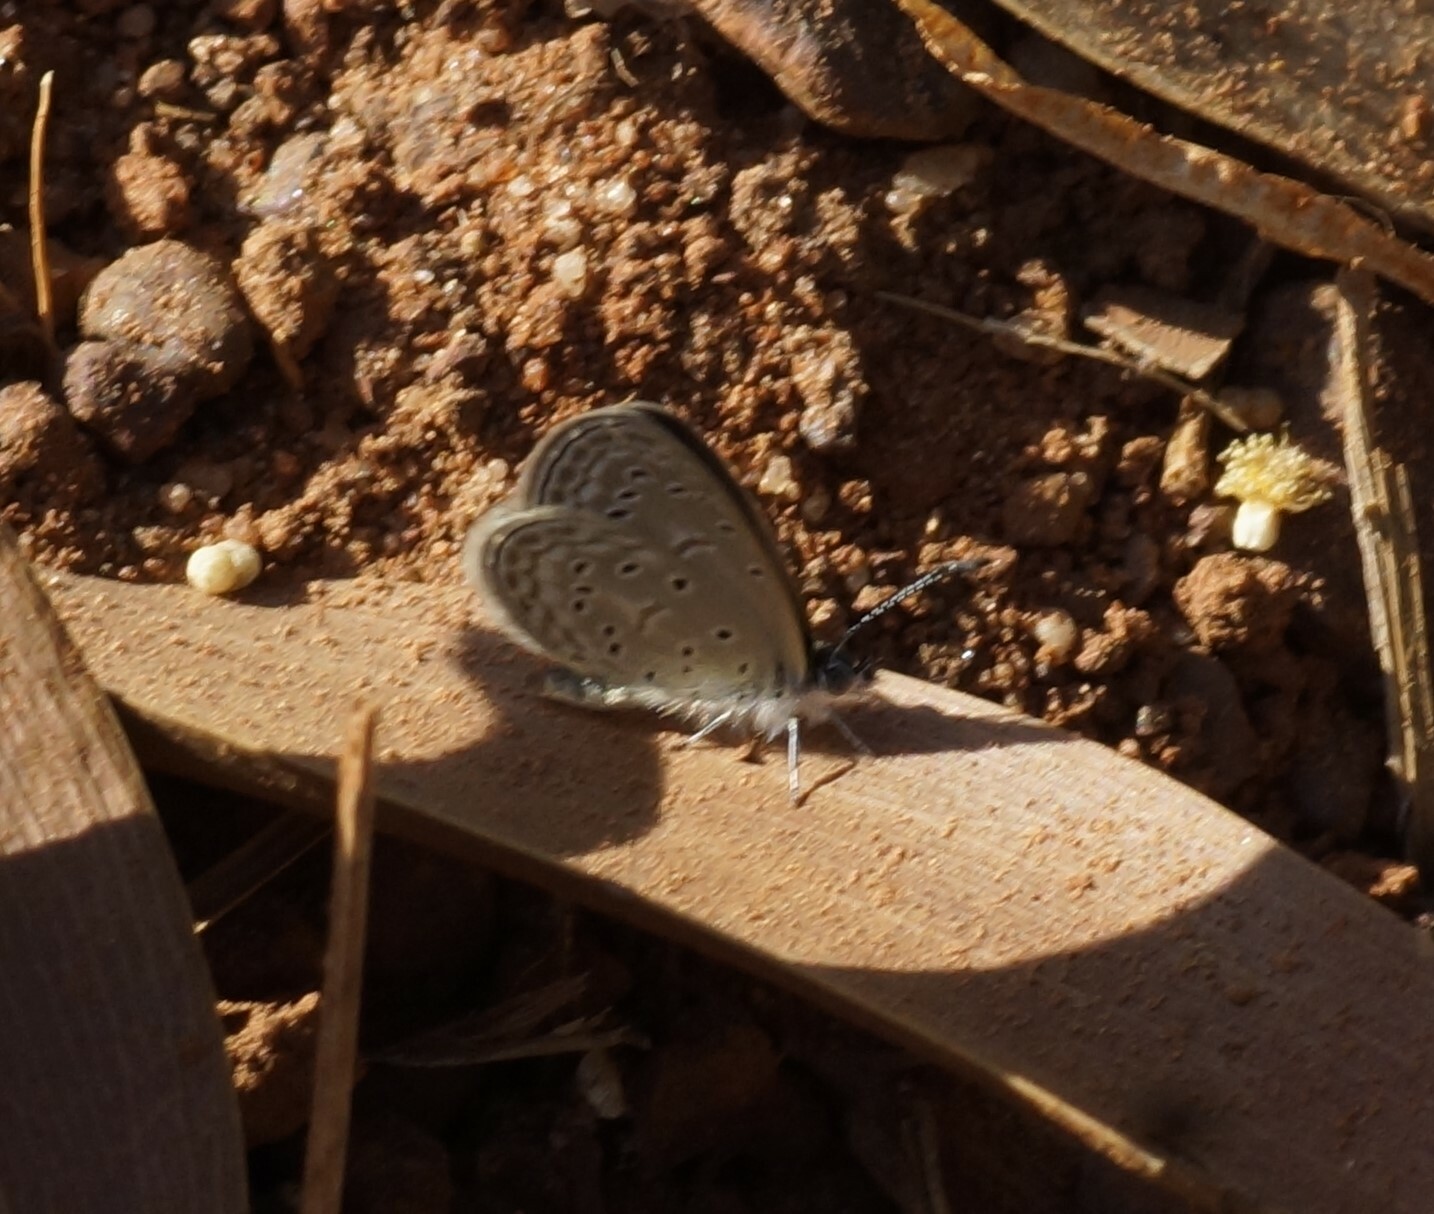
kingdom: Animalia
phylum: Arthropoda
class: Insecta
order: Lepidoptera
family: Lycaenidae
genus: Zizula
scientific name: Zizula hylax
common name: Gaika blue
